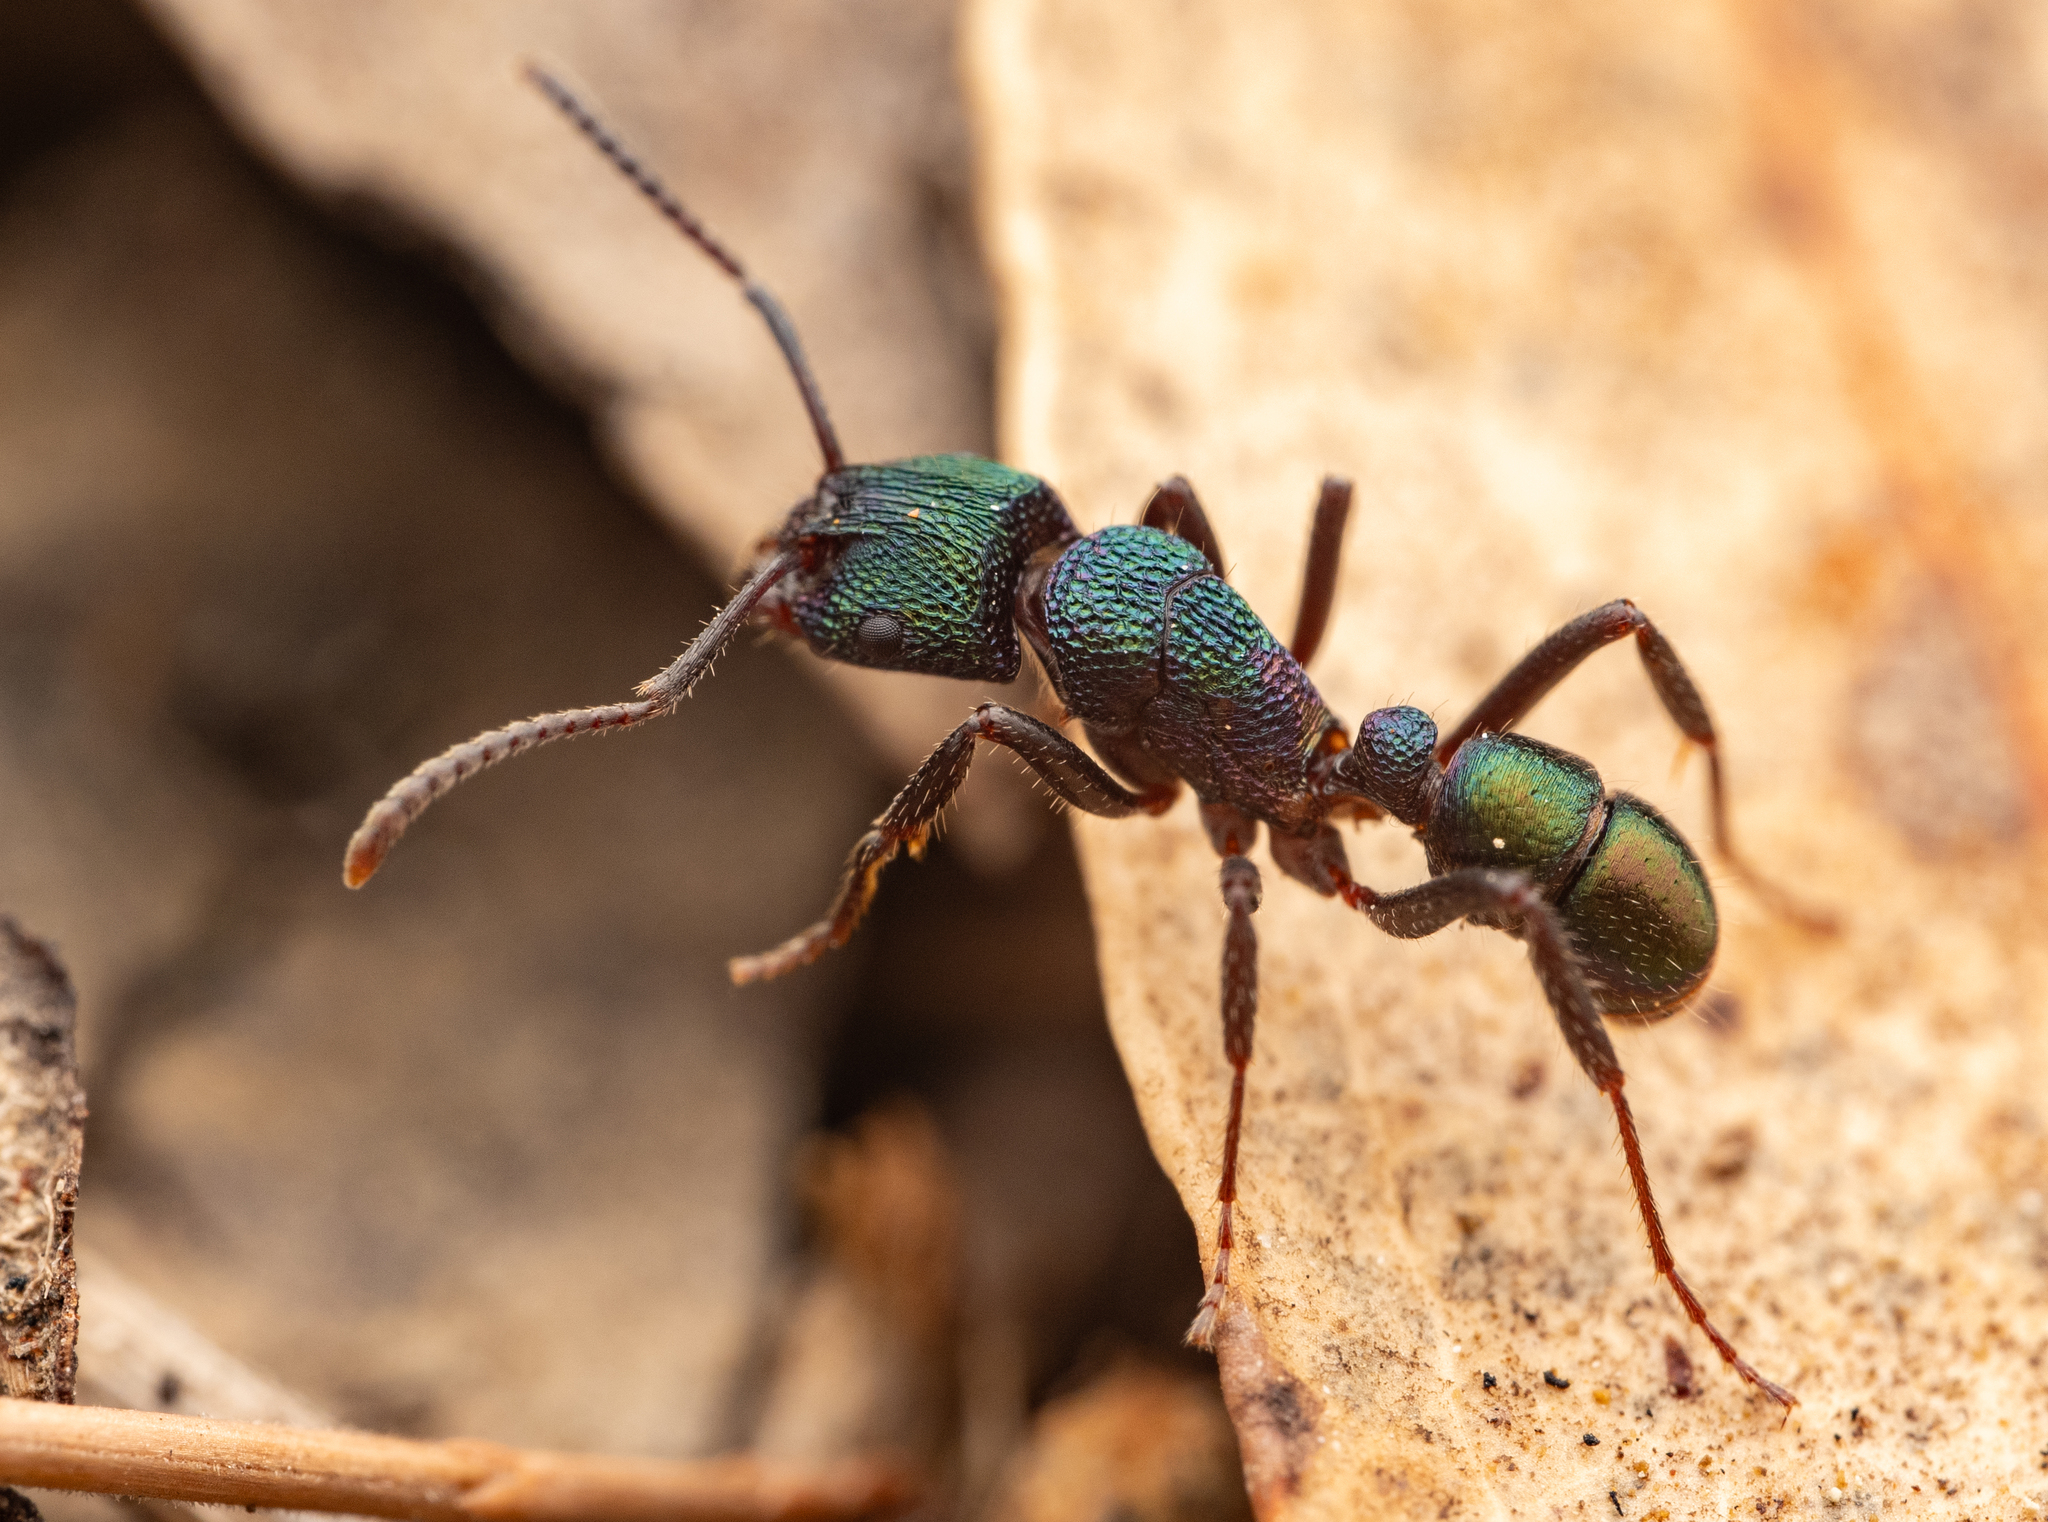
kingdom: Animalia
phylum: Arthropoda
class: Insecta
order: Hymenoptera
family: Formicidae
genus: Rhytidoponera
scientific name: Rhytidoponera metallica
